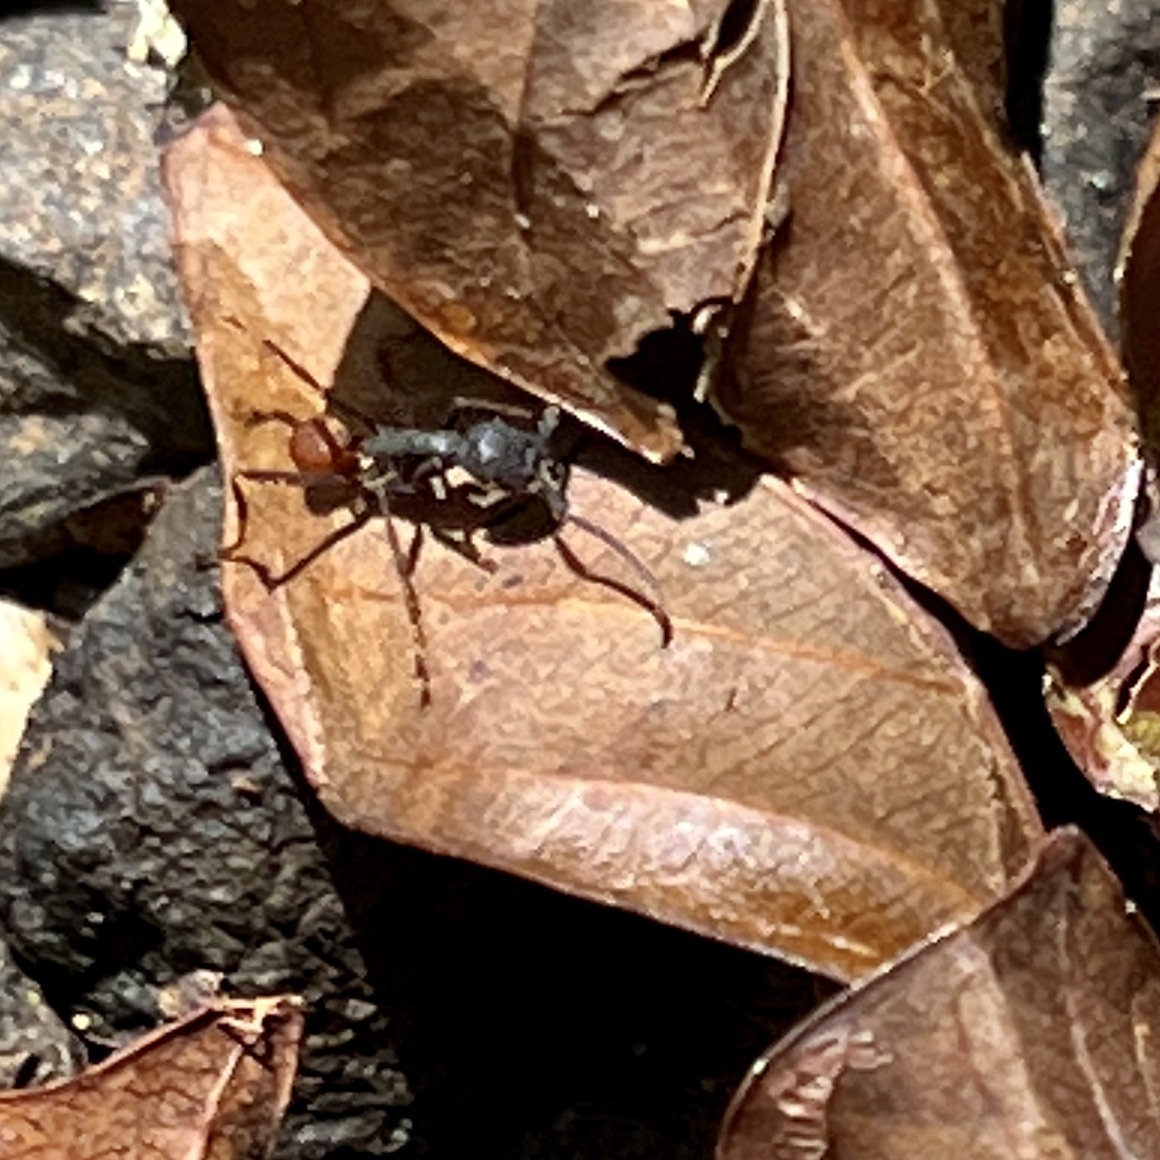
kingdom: Animalia
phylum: Arthropoda
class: Insecta
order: Hymenoptera
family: Formicidae
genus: Eciton
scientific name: Eciton burchellii
